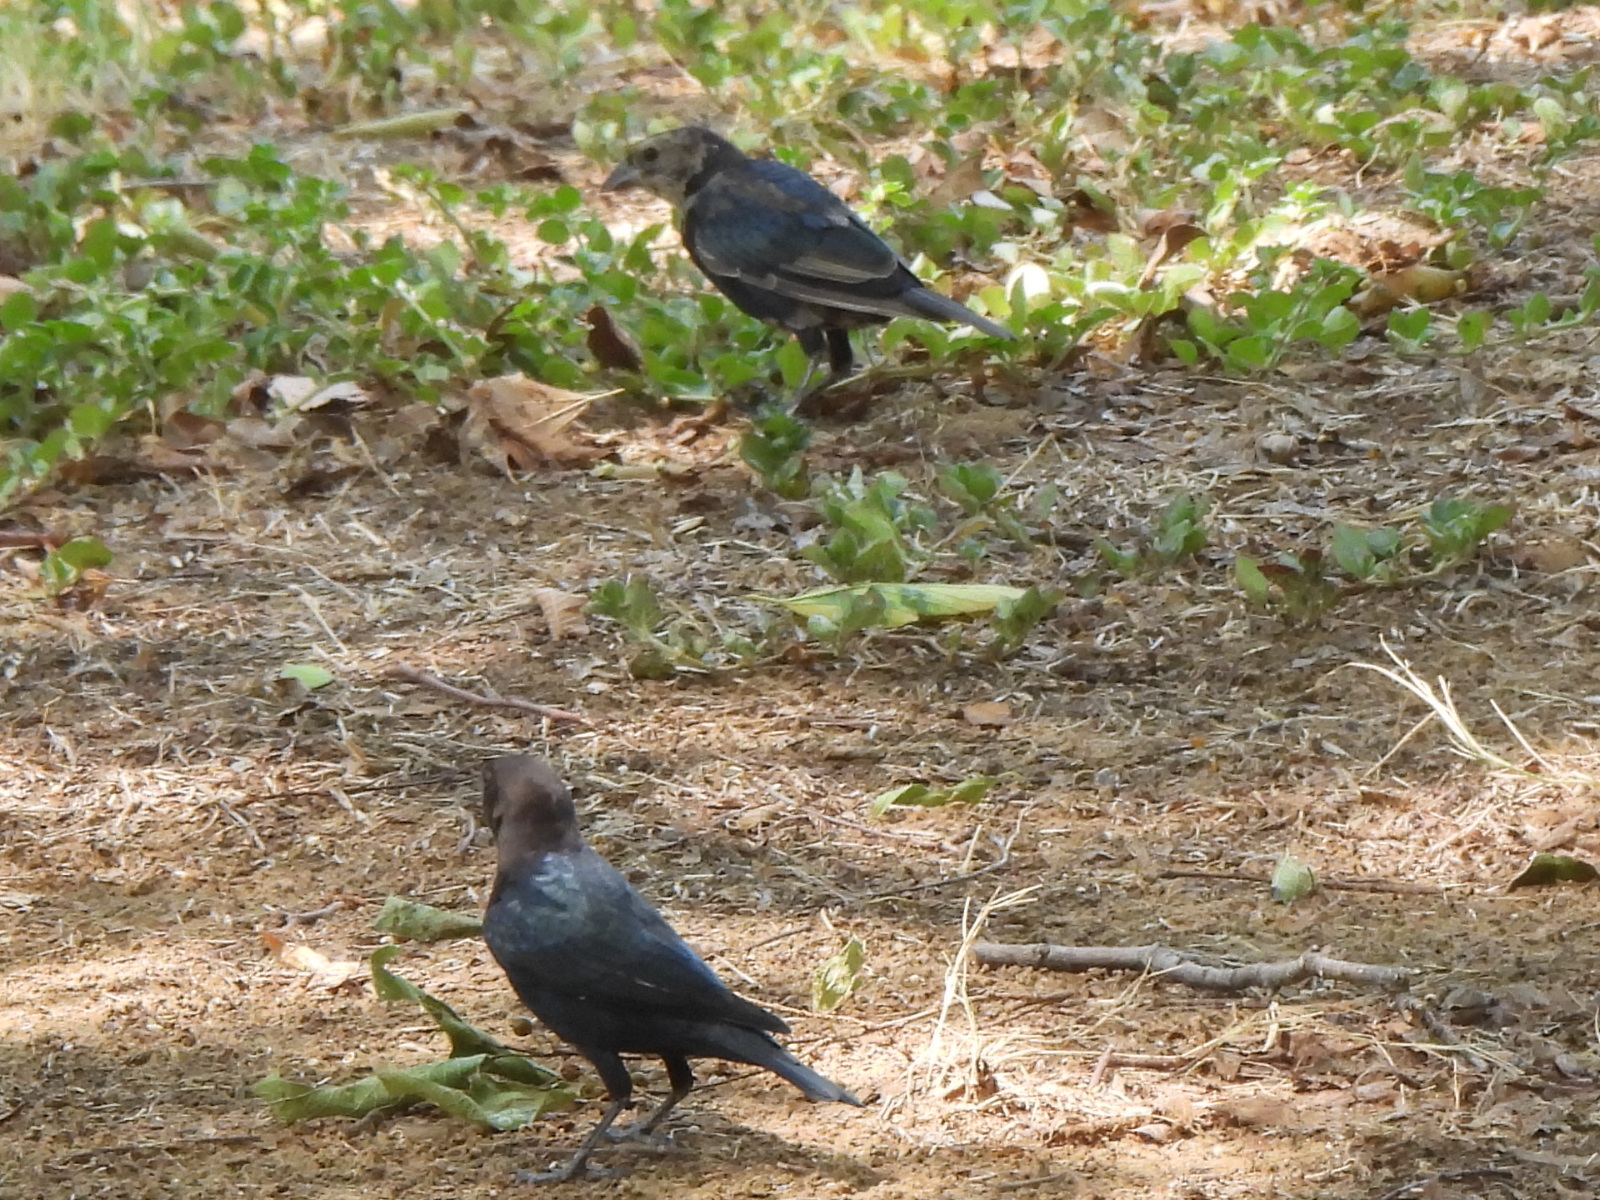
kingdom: Animalia
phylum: Chordata
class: Aves
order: Passeriformes
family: Icteridae
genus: Molothrus
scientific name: Molothrus ater
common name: Brown-headed cowbird
